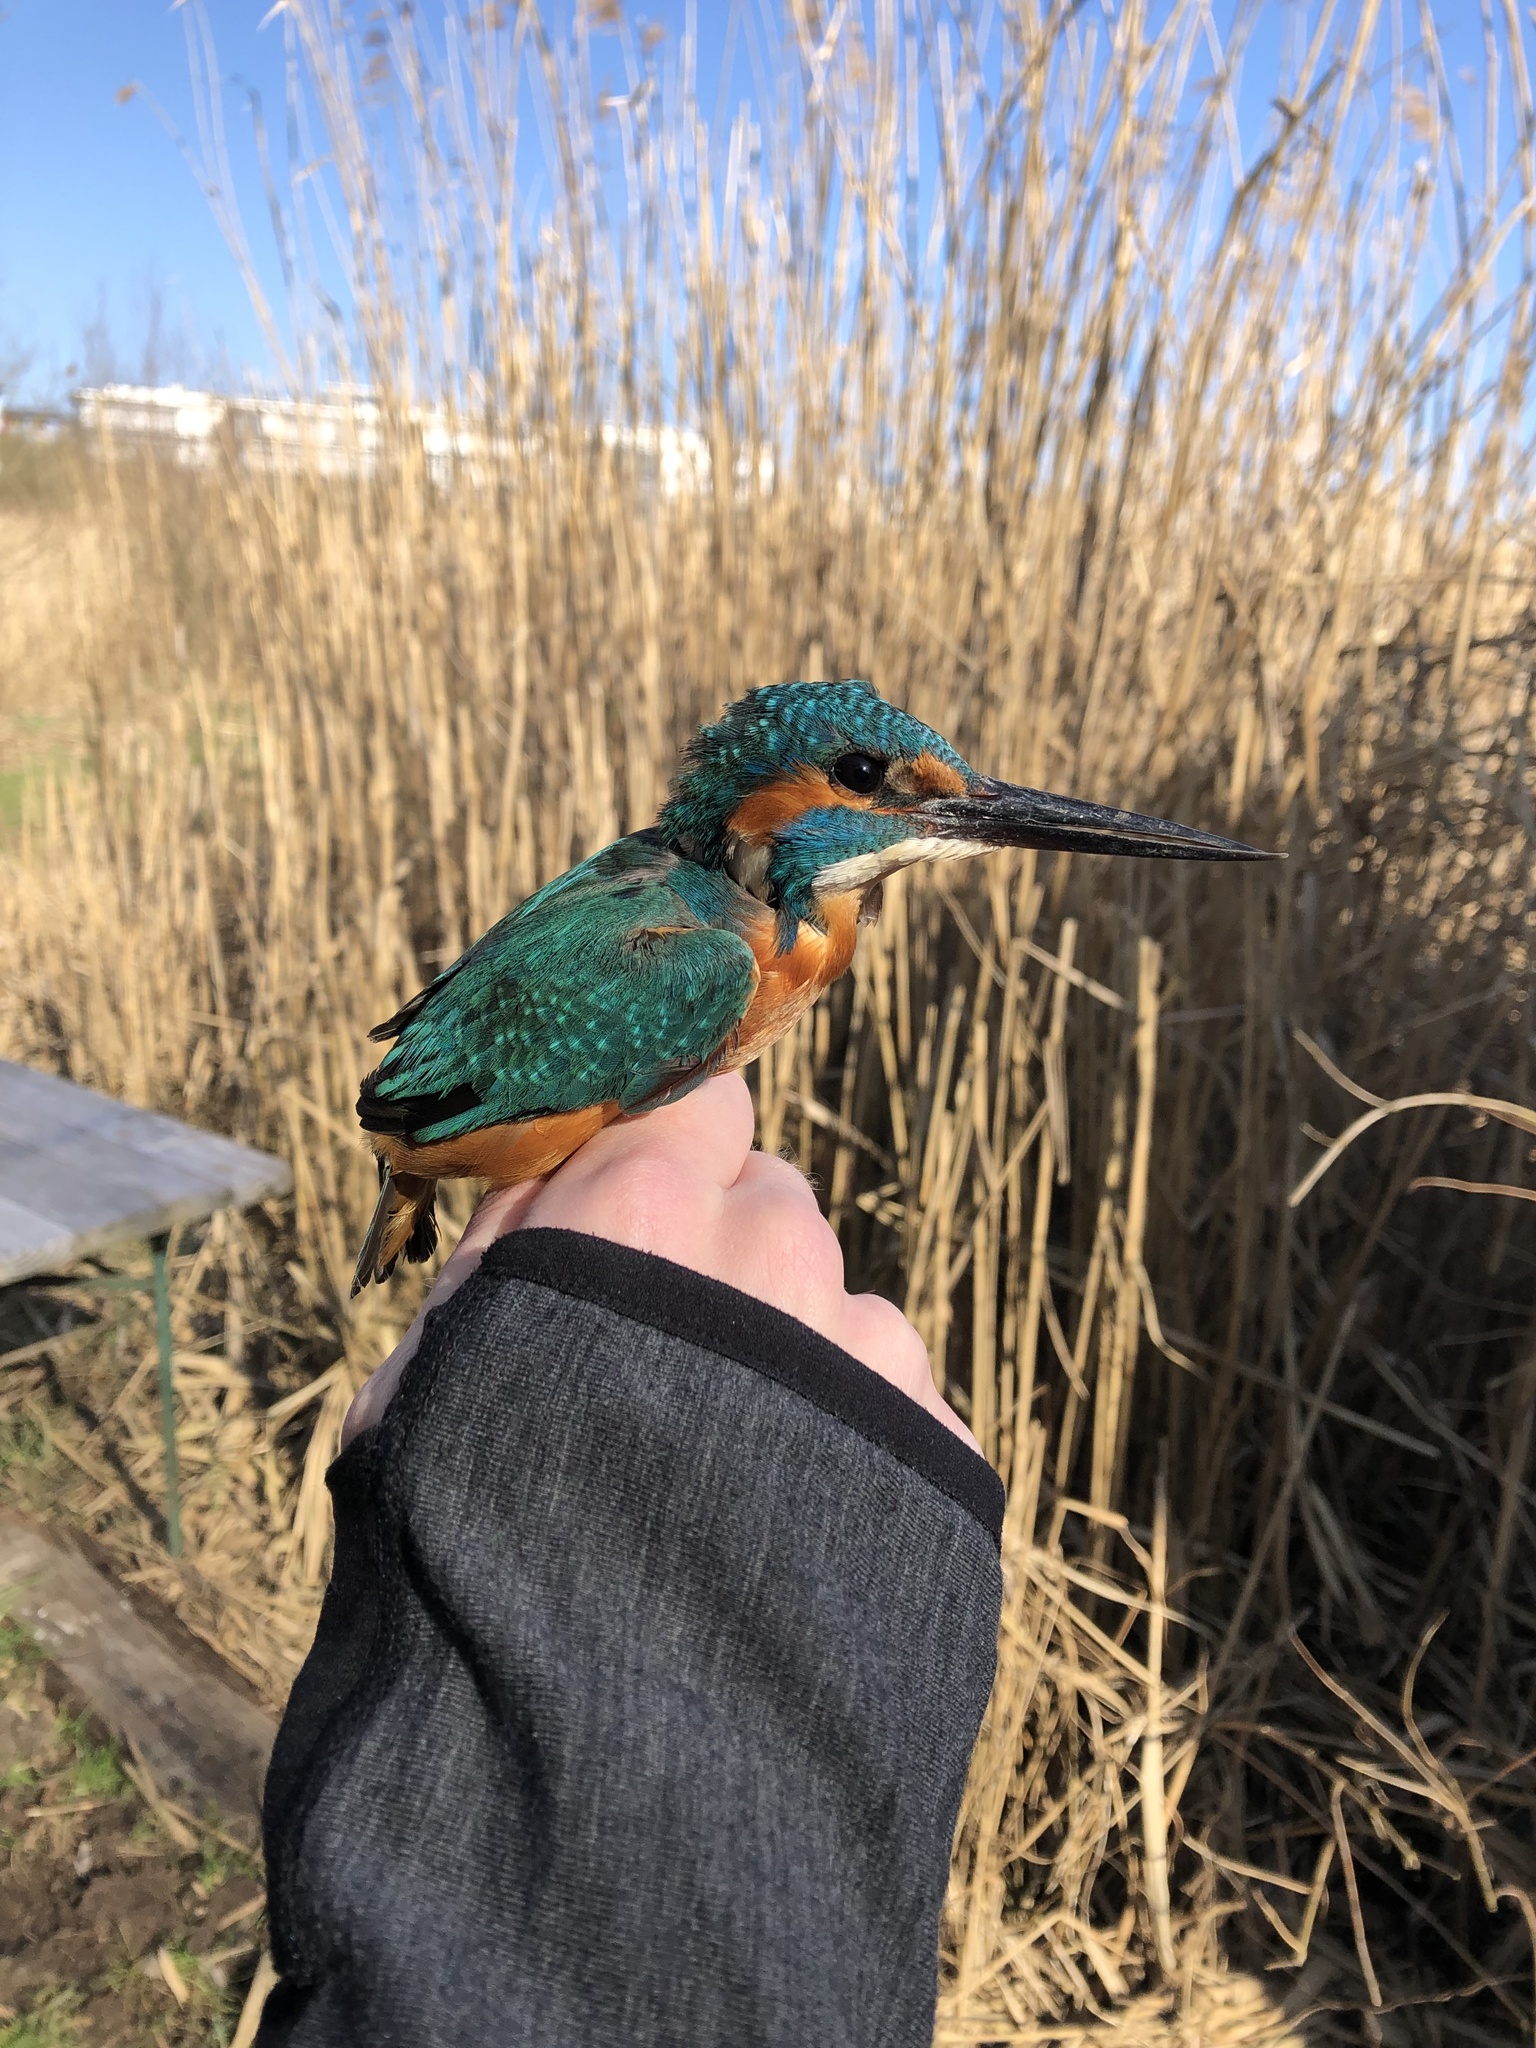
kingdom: Animalia
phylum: Chordata
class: Aves
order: Coraciiformes
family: Alcedinidae
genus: Alcedo
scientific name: Alcedo atthis
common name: Common kingfisher
